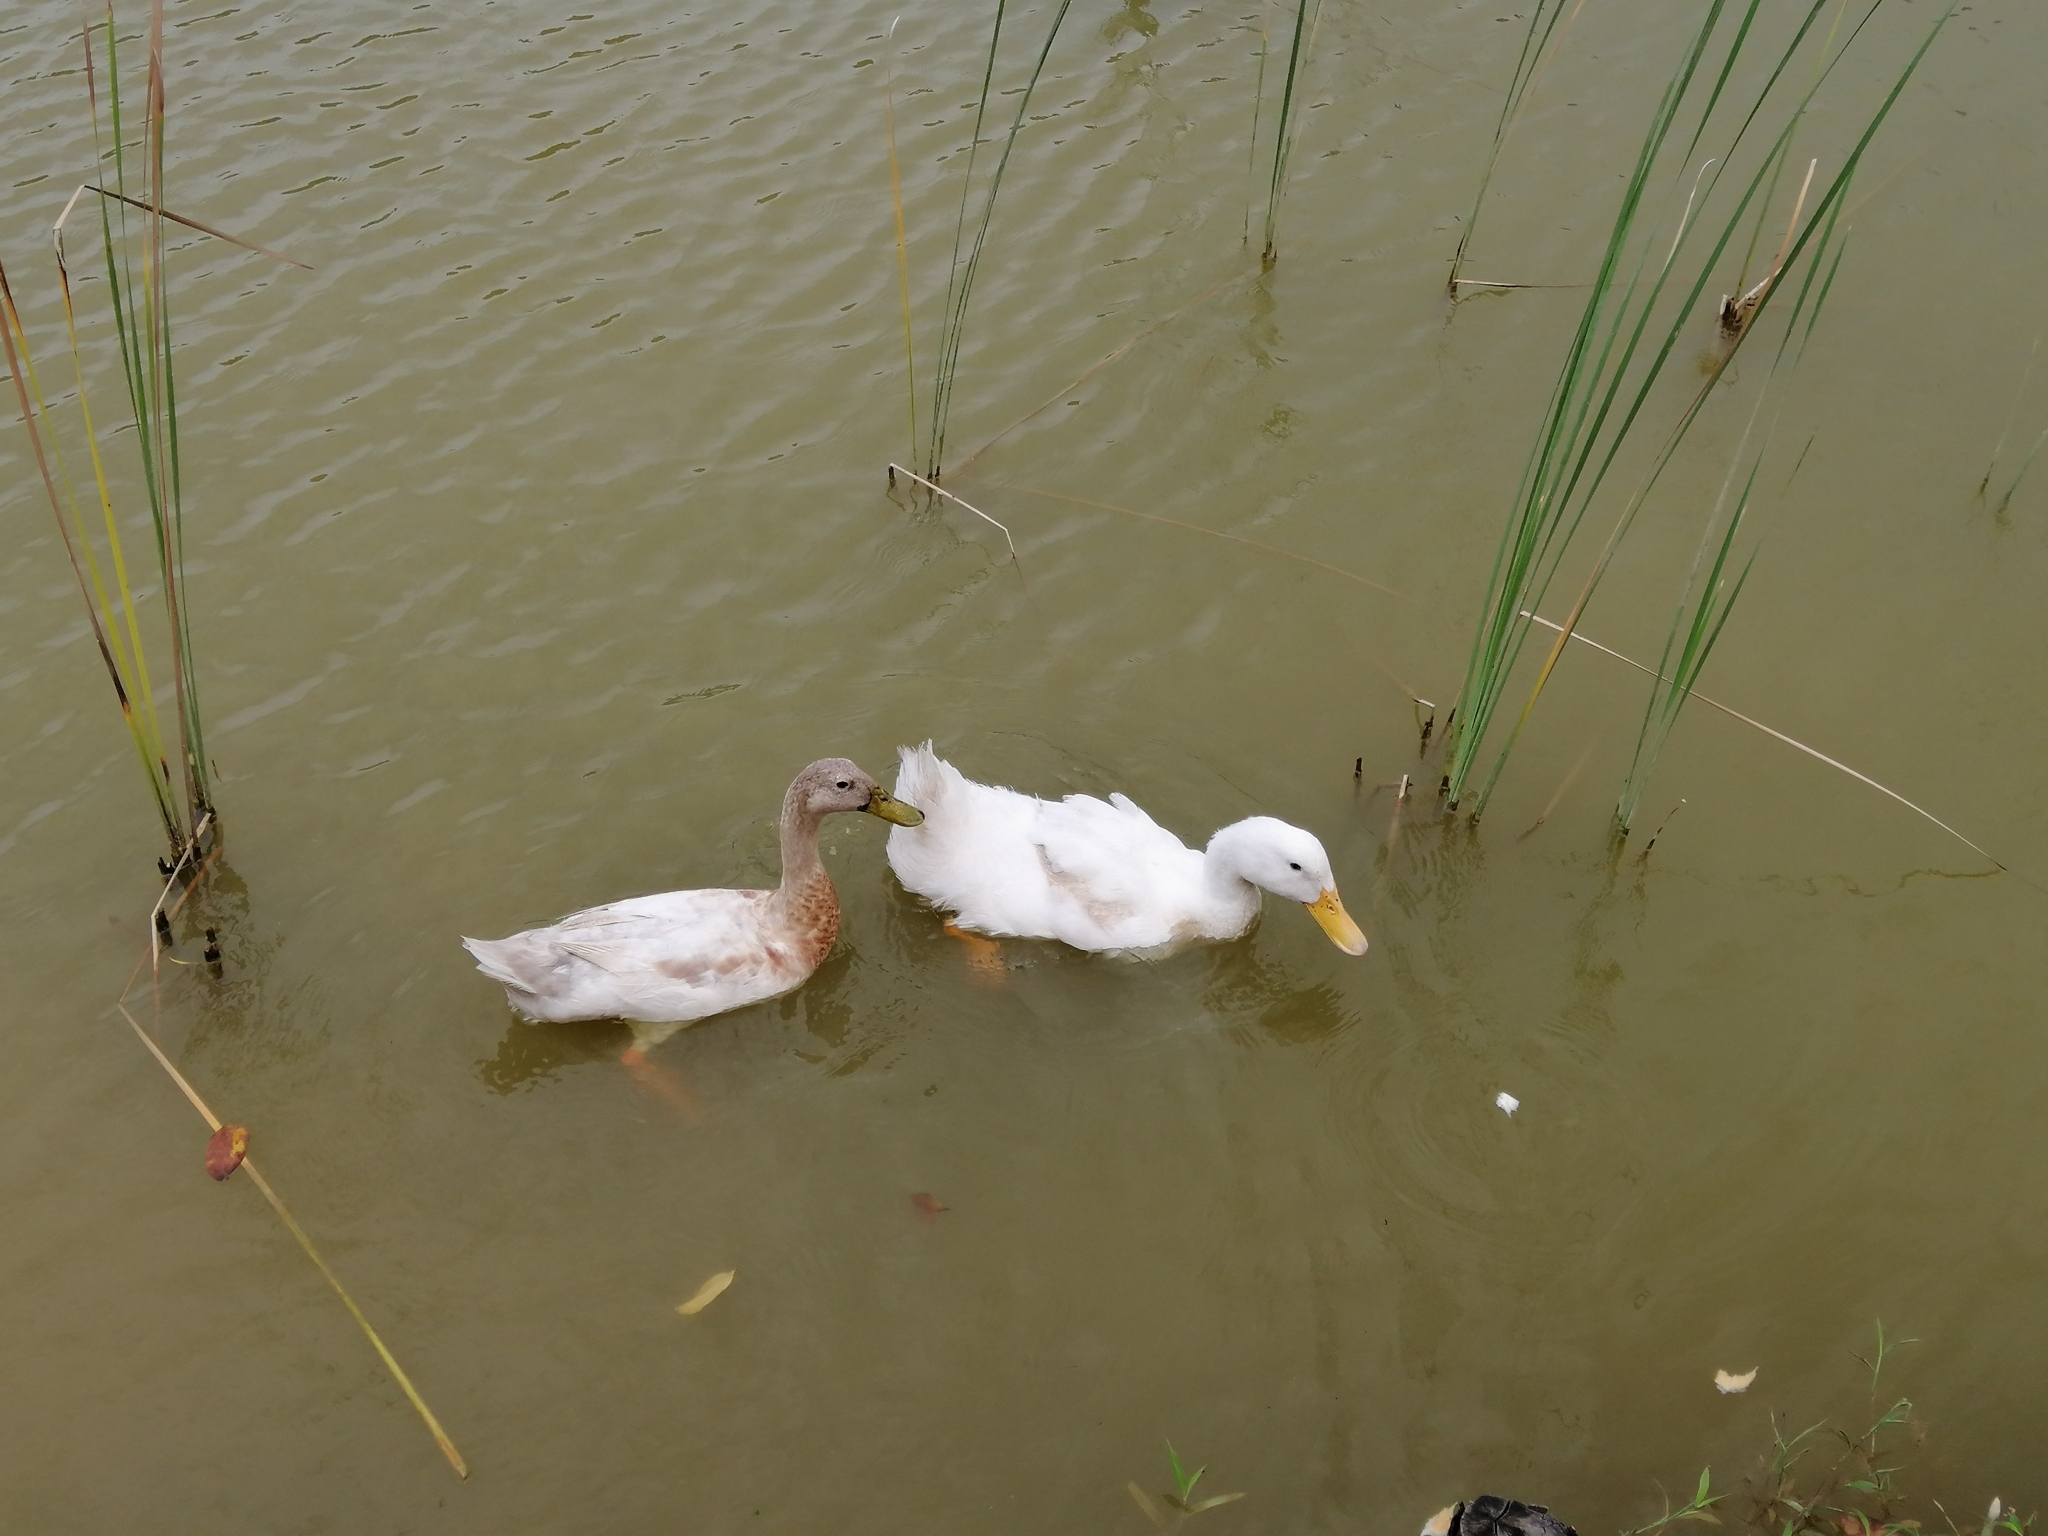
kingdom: Animalia
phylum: Chordata
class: Aves
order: Anseriformes
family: Anatidae
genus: Anas
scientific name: Anas platyrhynchos
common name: Mallard
